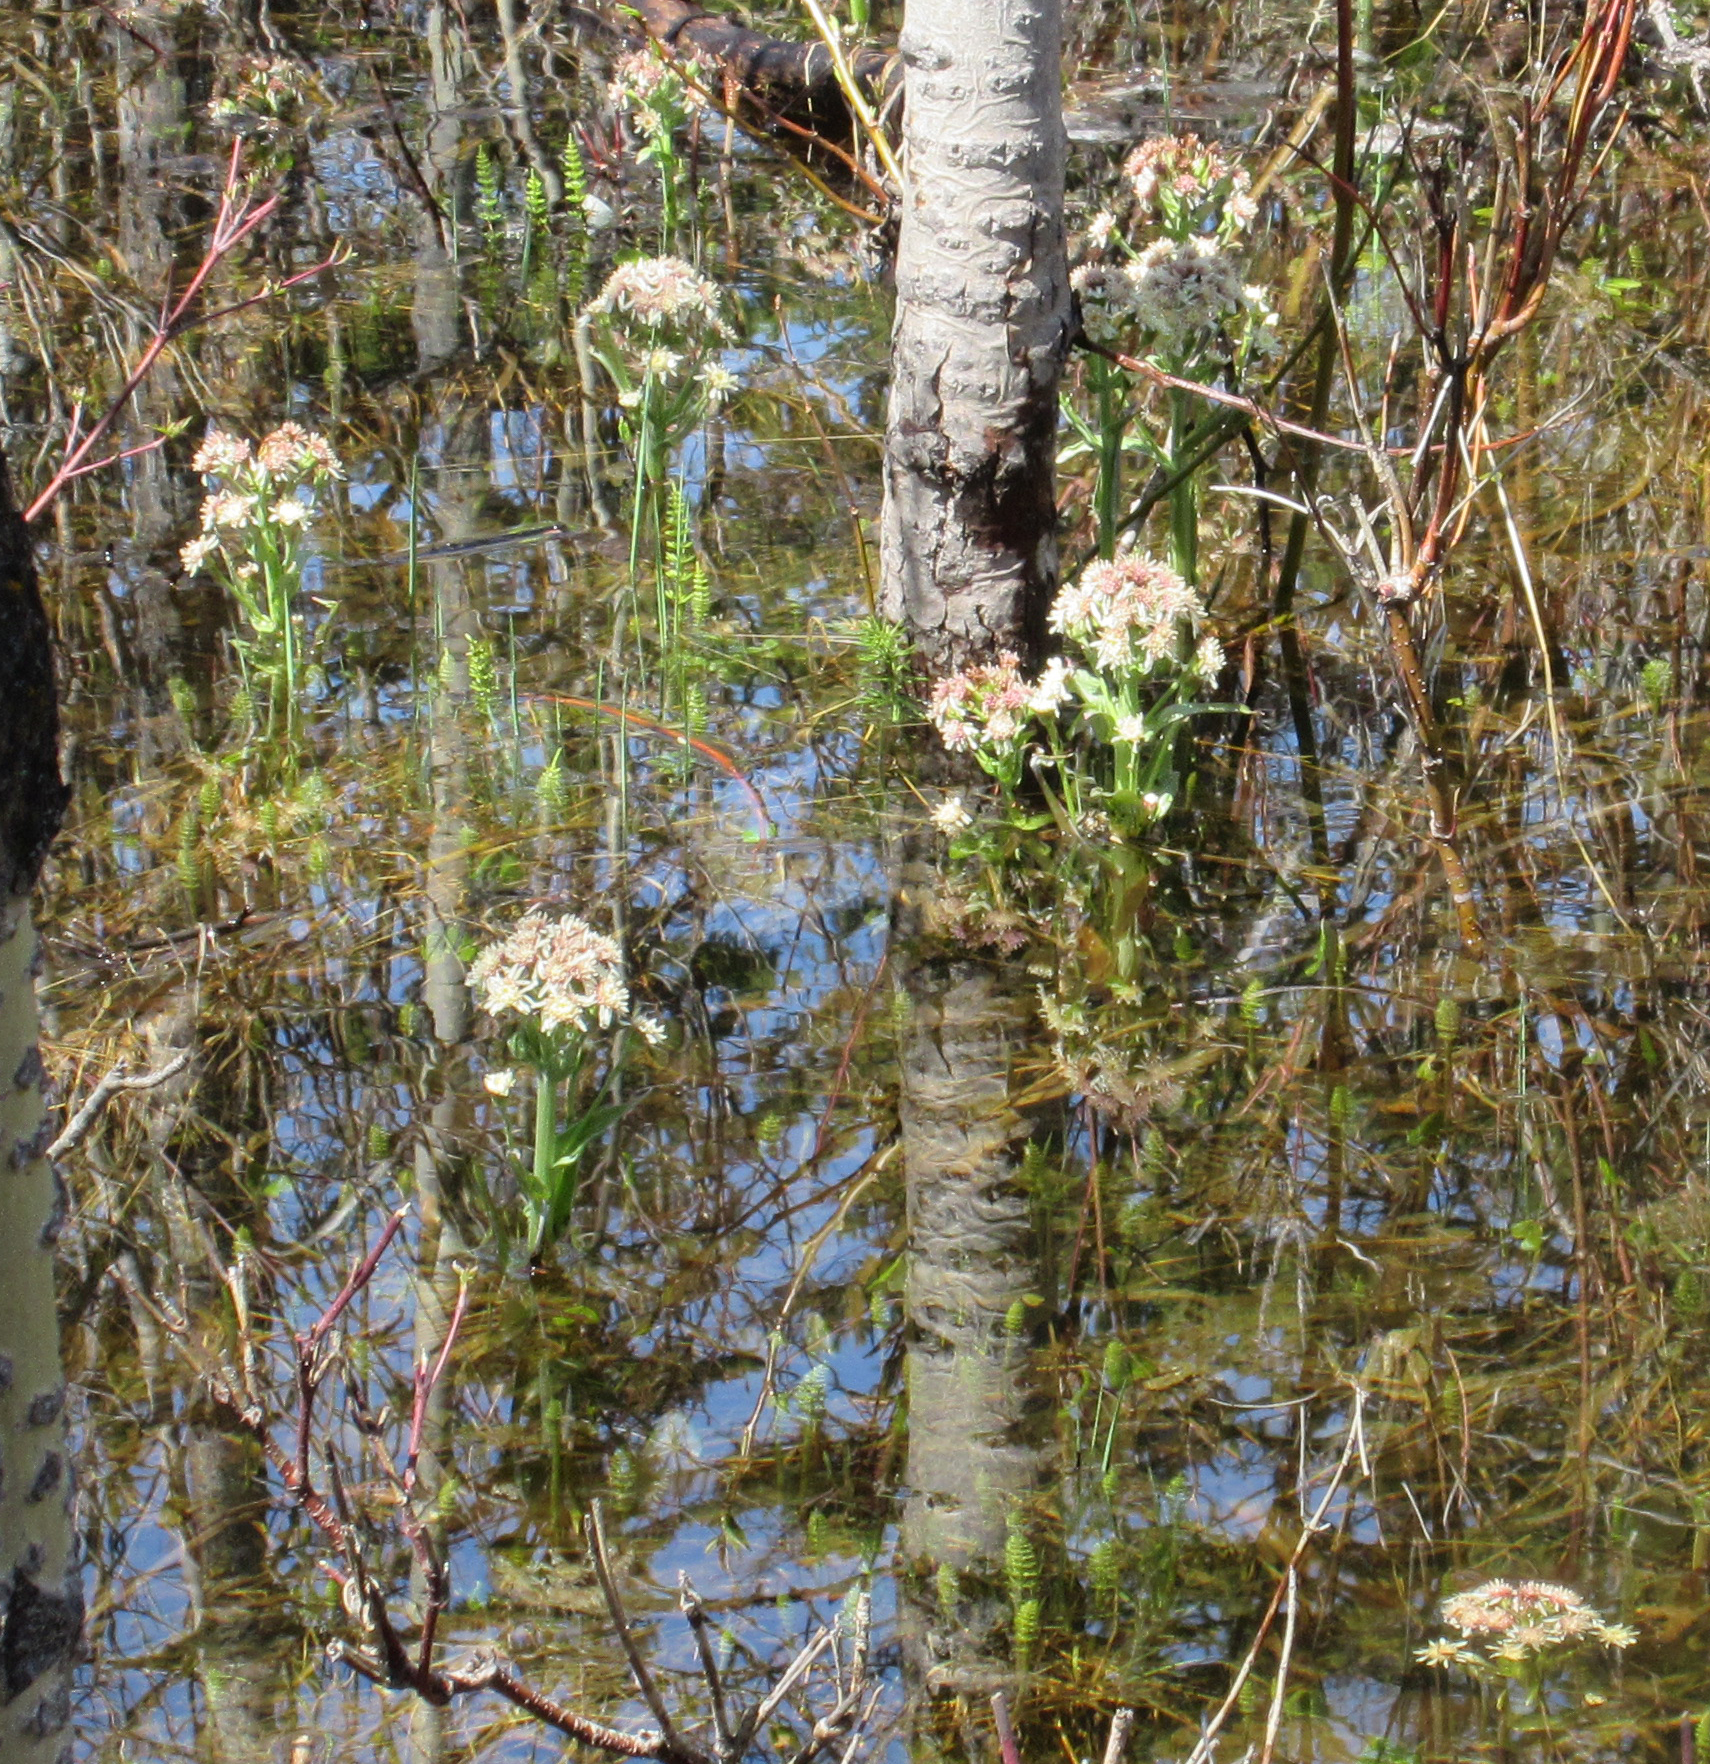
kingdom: Plantae
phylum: Tracheophyta
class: Magnoliopsida
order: Asterales
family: Asteraceae
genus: Petasites
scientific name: Petasites frigidus
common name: Arctic butterbur
